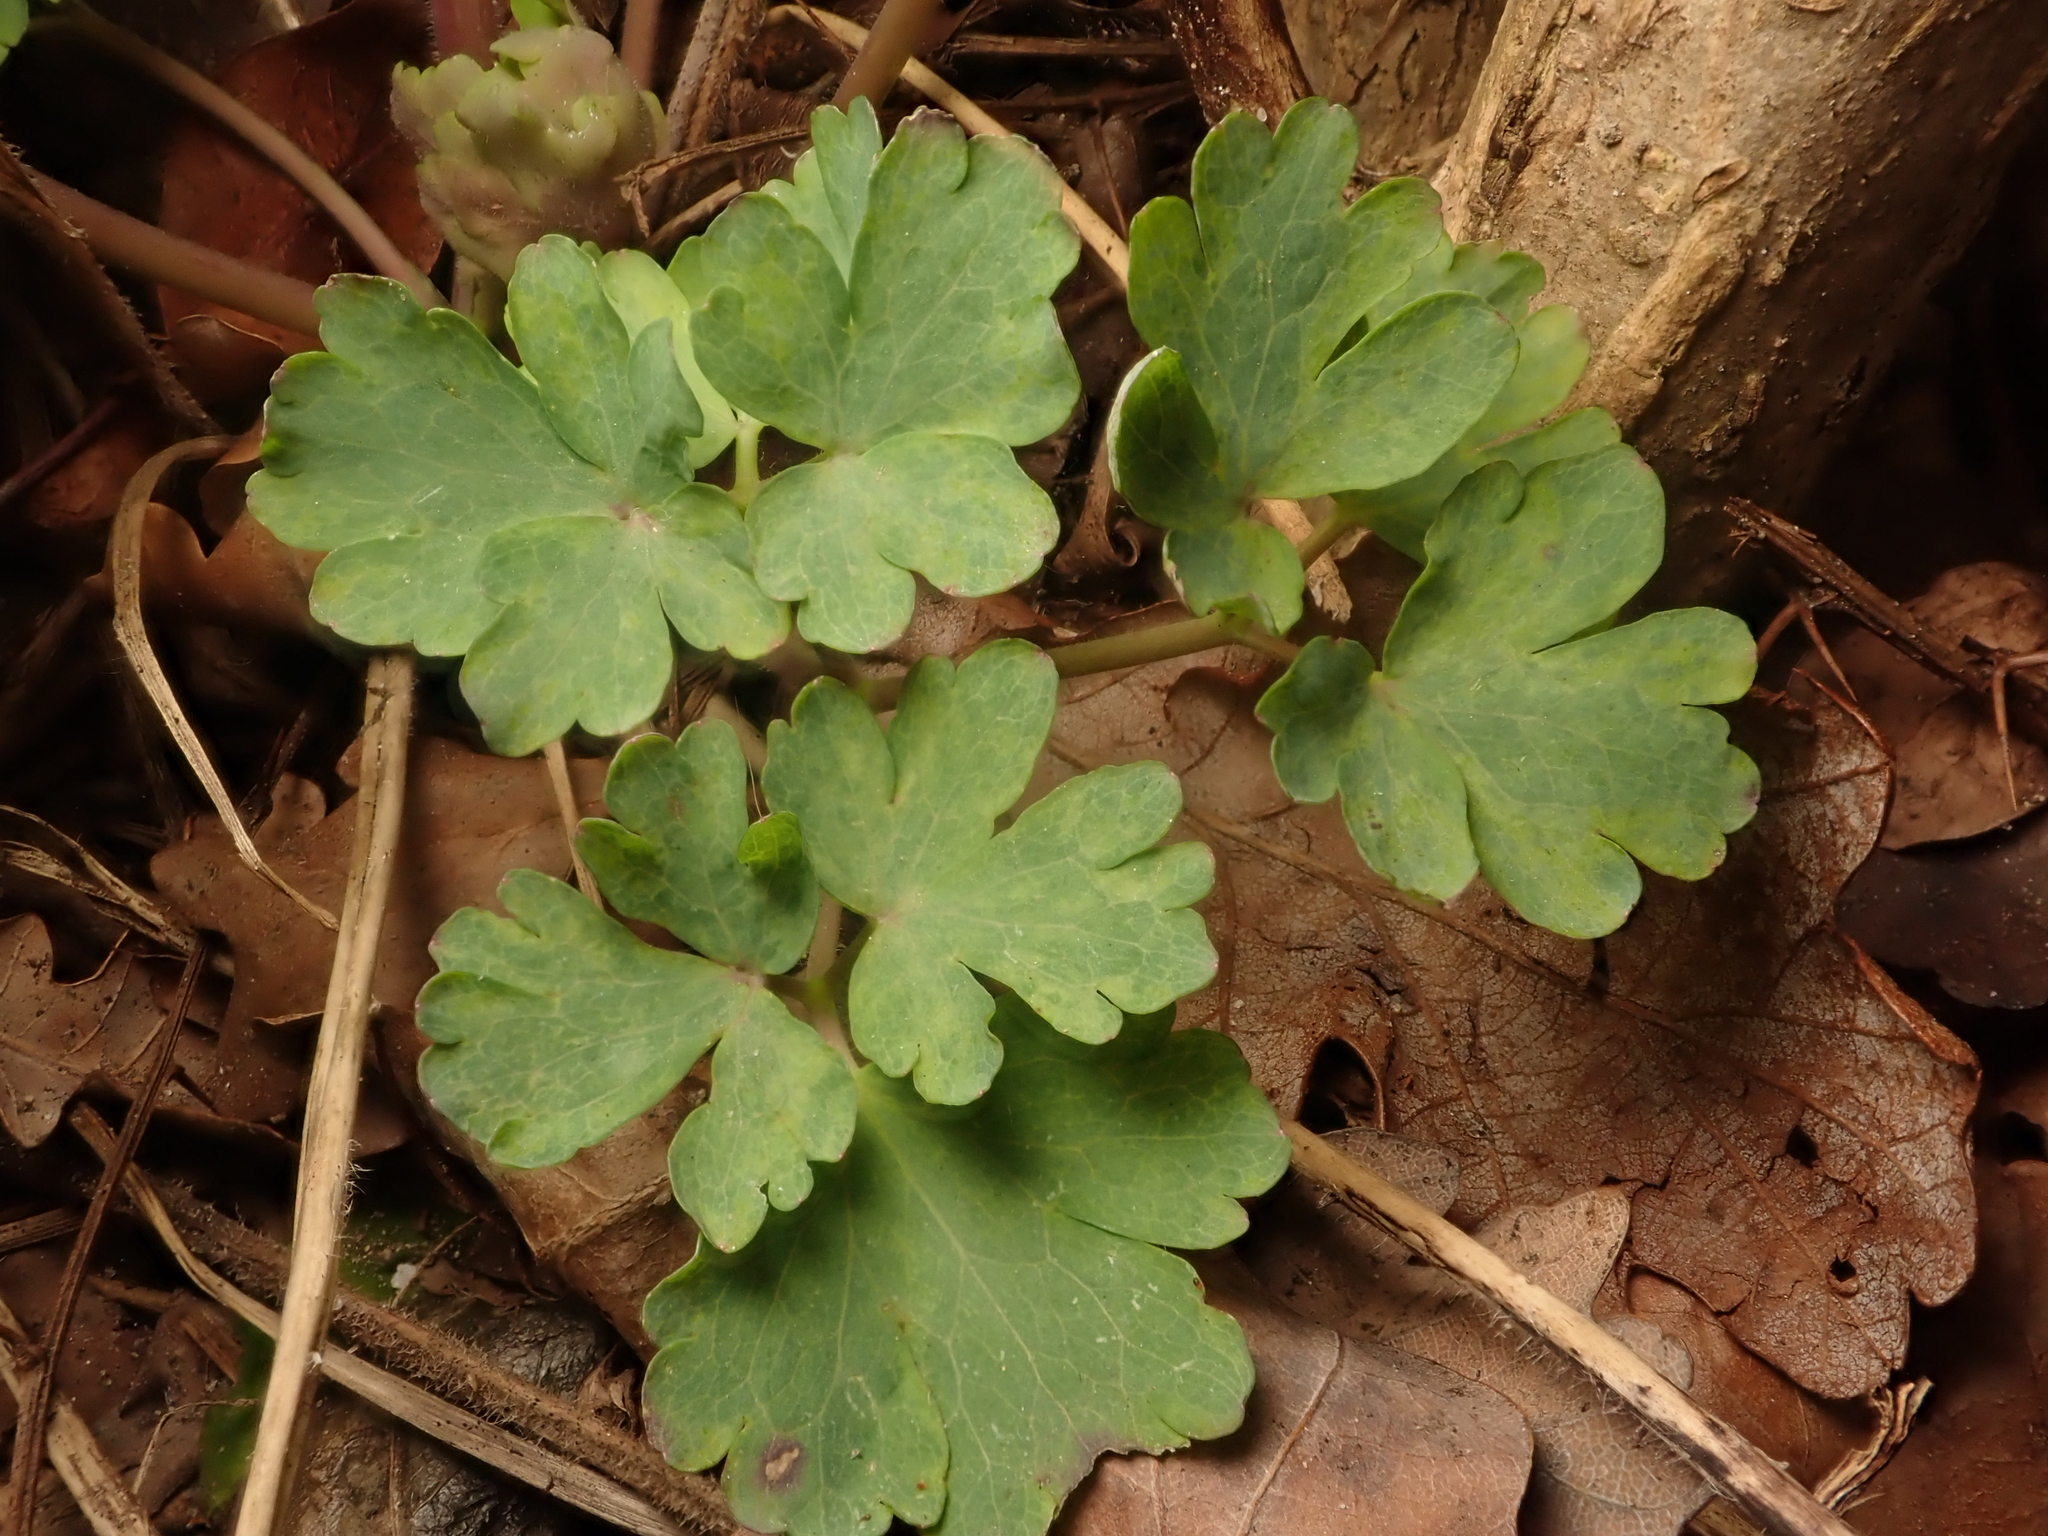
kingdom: Plantae
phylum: Tracheophyta
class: Magnoliopsida
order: Ranunculales
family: Ranunculaceae
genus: Aquilegia
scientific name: Aquilegia vulgaris
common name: Columbine
